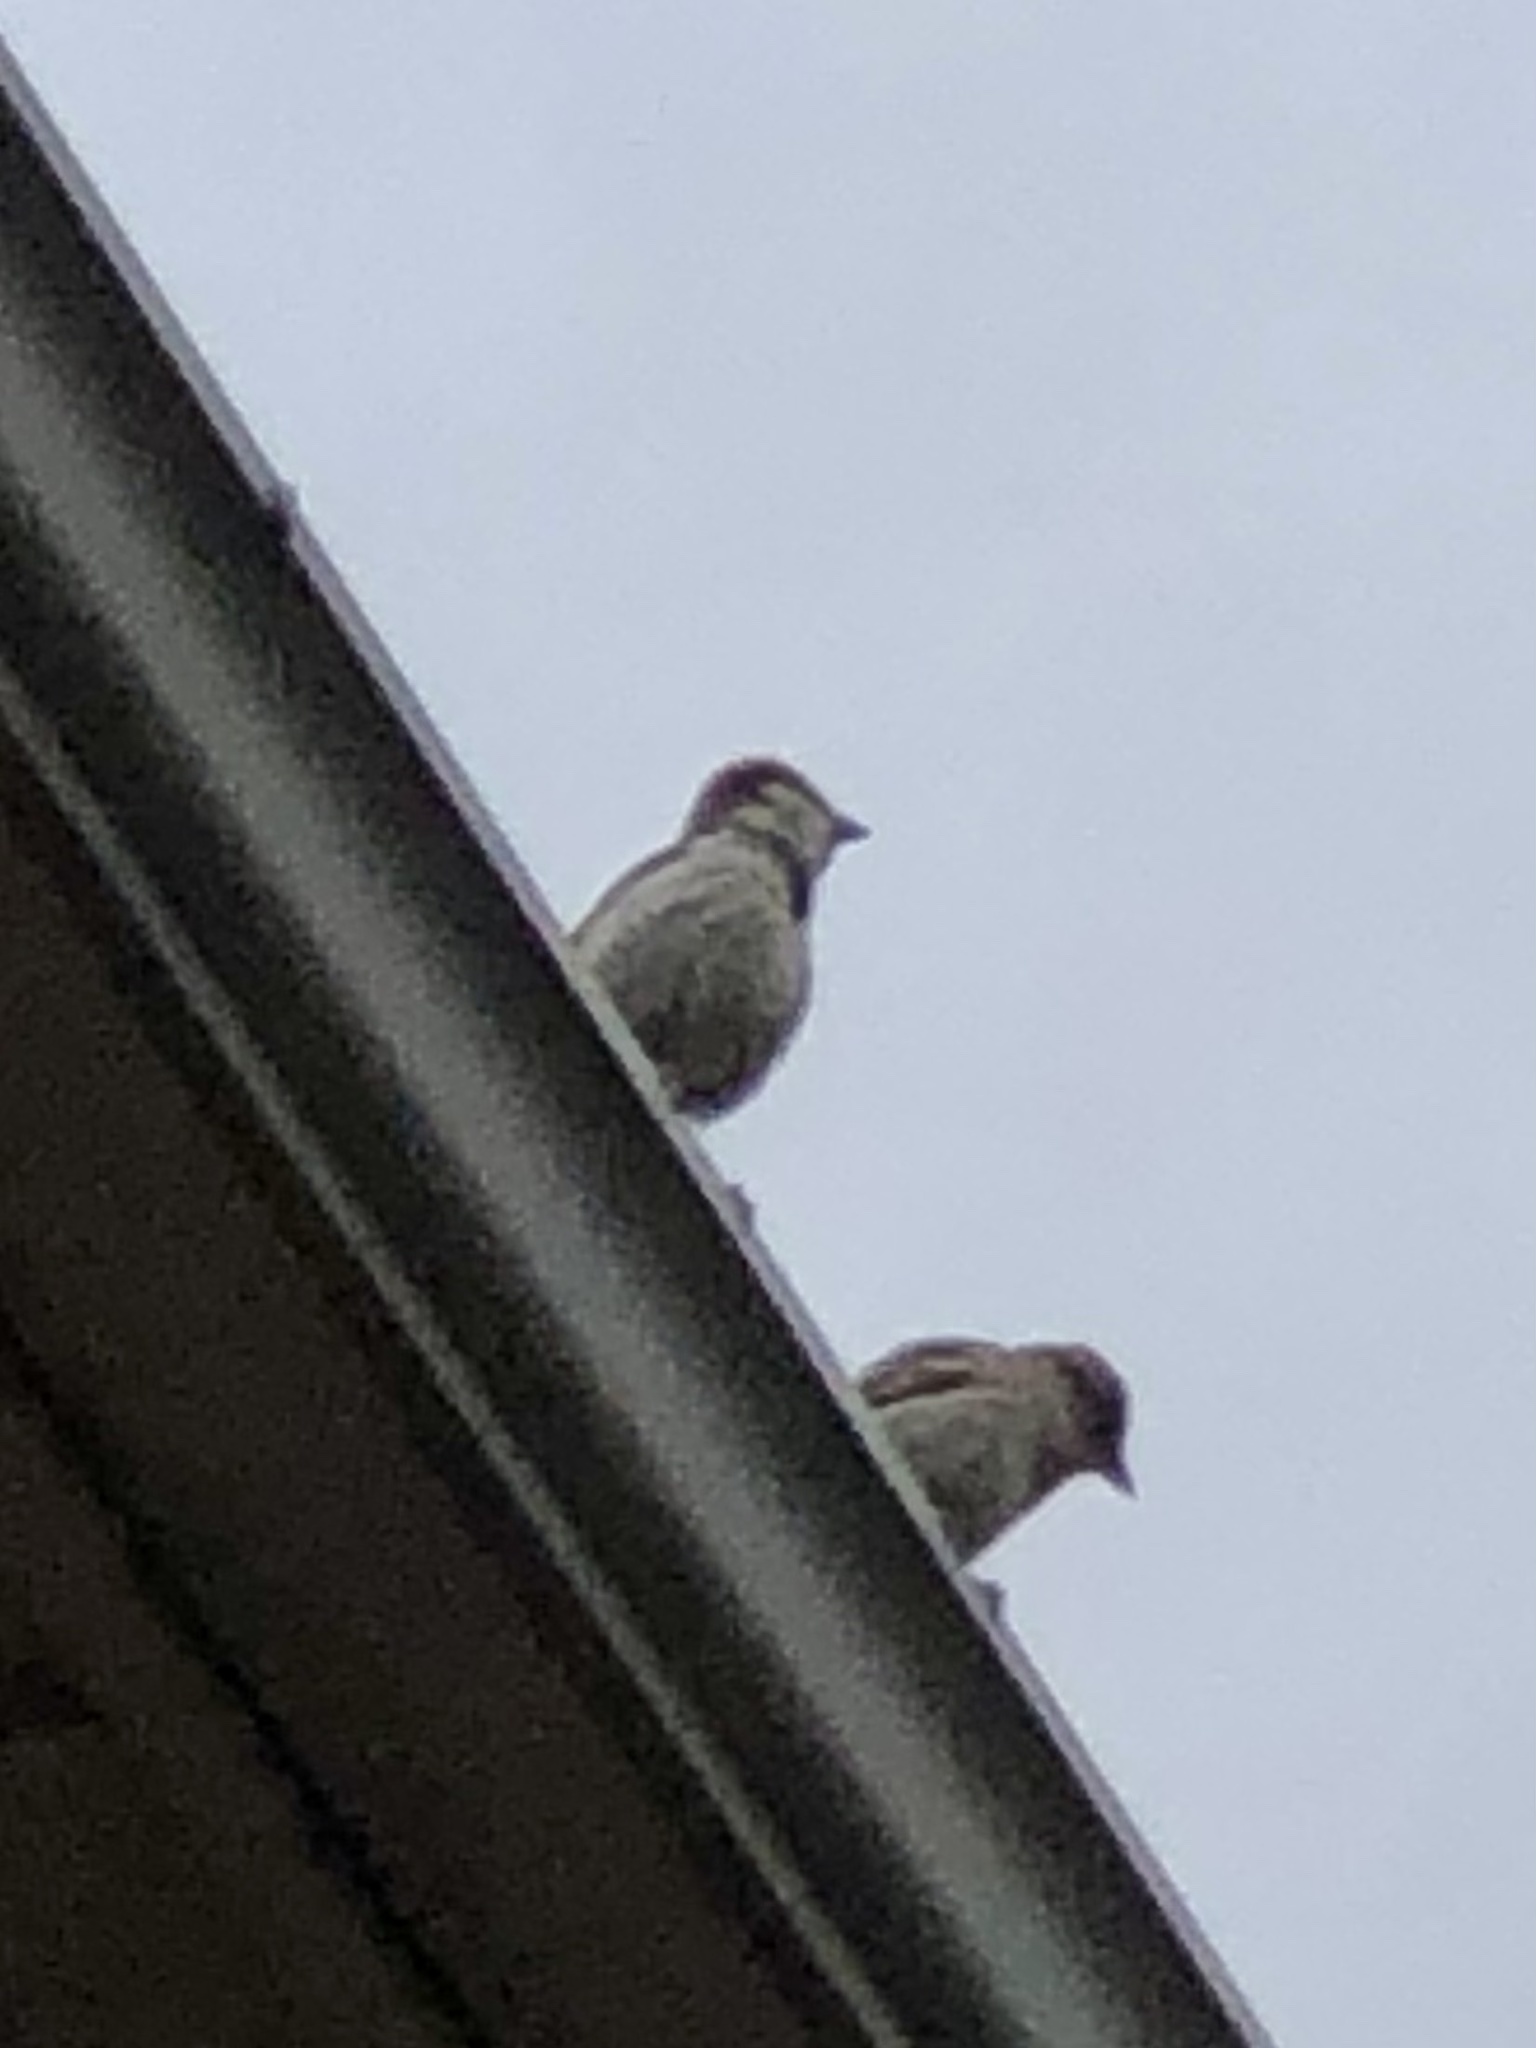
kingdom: Animalia
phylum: Chordata
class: Aves
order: Passeriformes
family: Passeridae
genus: Passer
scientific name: Passer domesticus
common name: House sparrow
